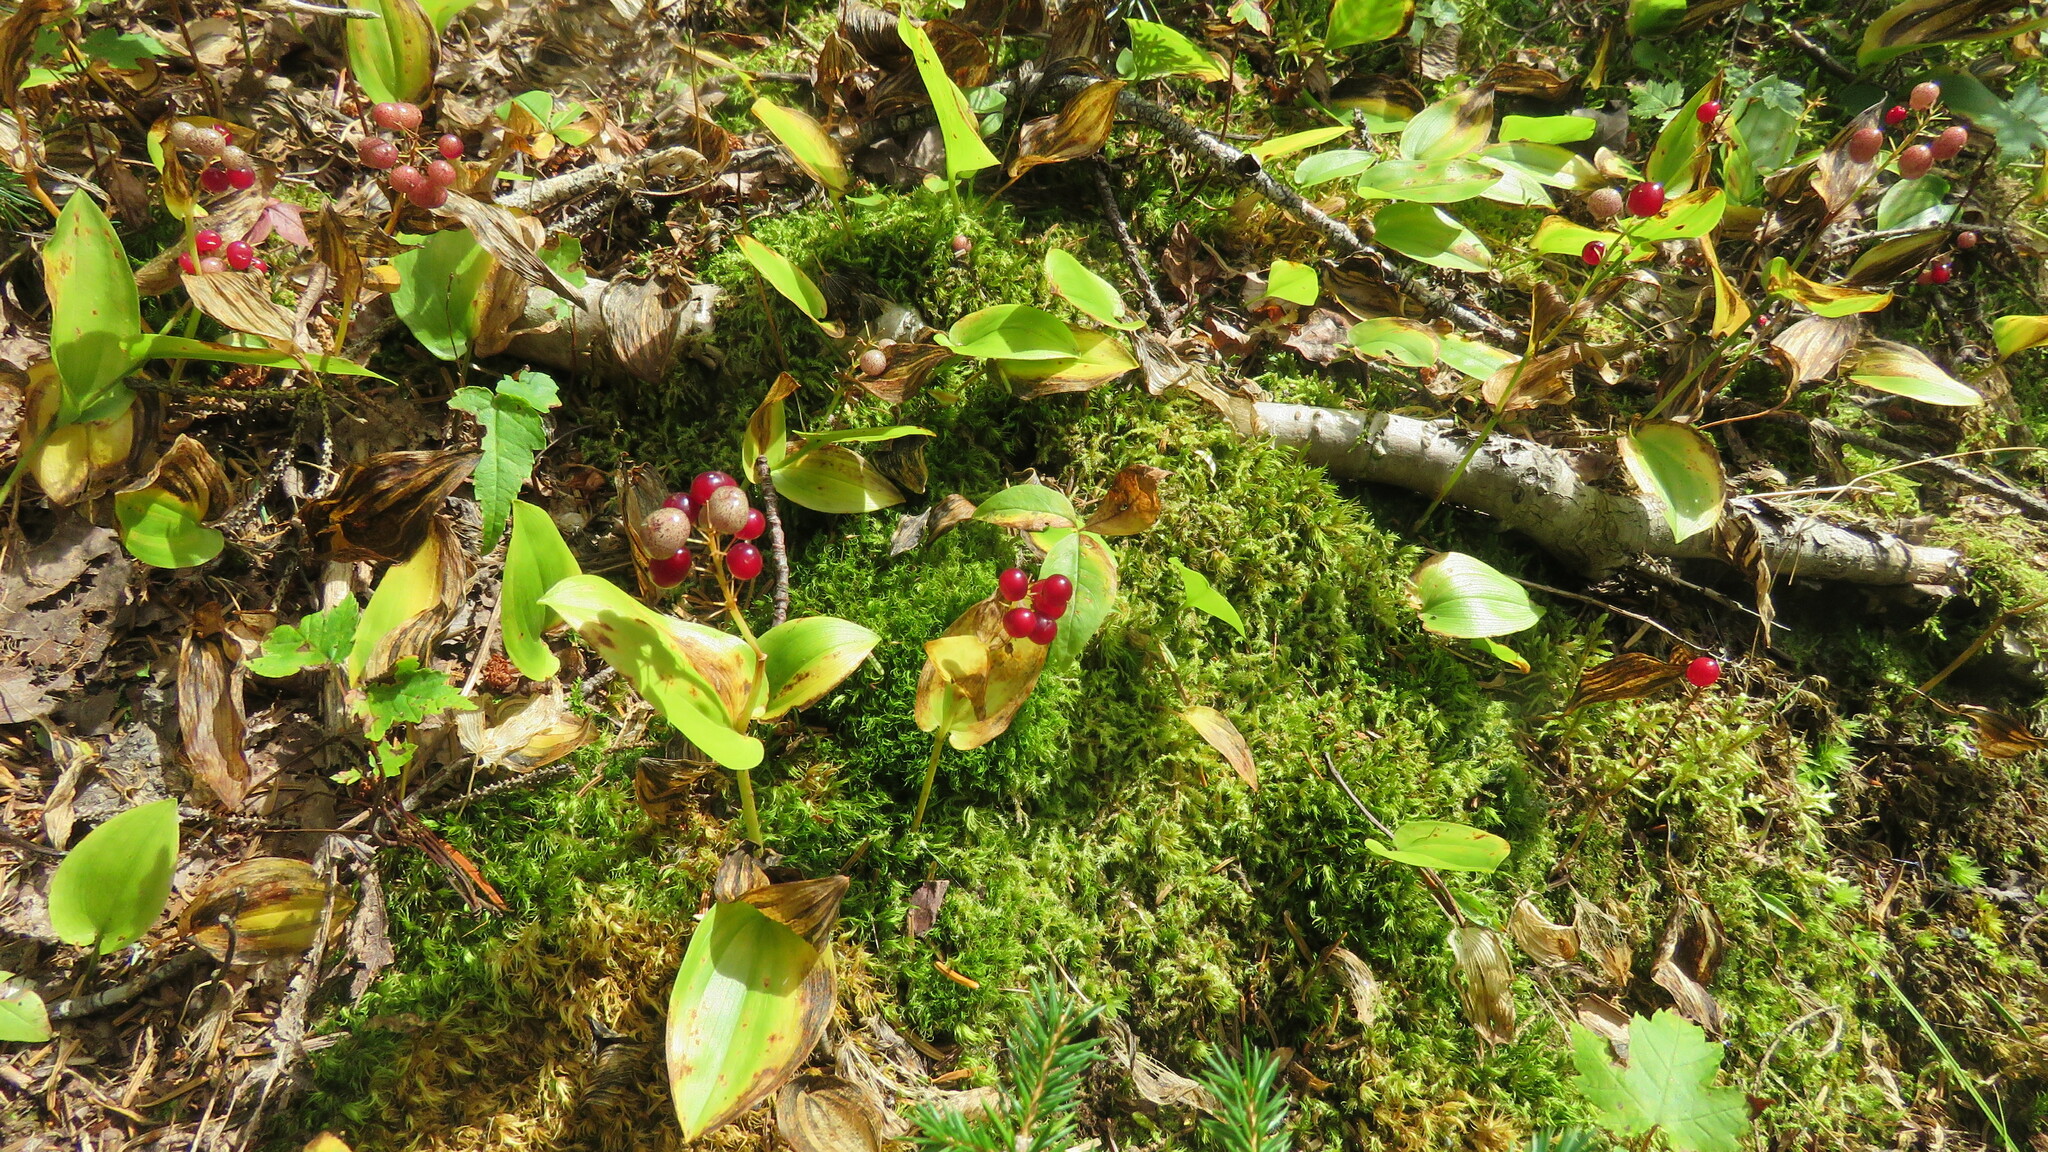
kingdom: Plantae
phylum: Tracheophyta
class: Liliopsida
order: Asparagales
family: Asparagaceae
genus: Maianthemum
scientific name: Maianthemum canadense
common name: False lily-of-the-valley
